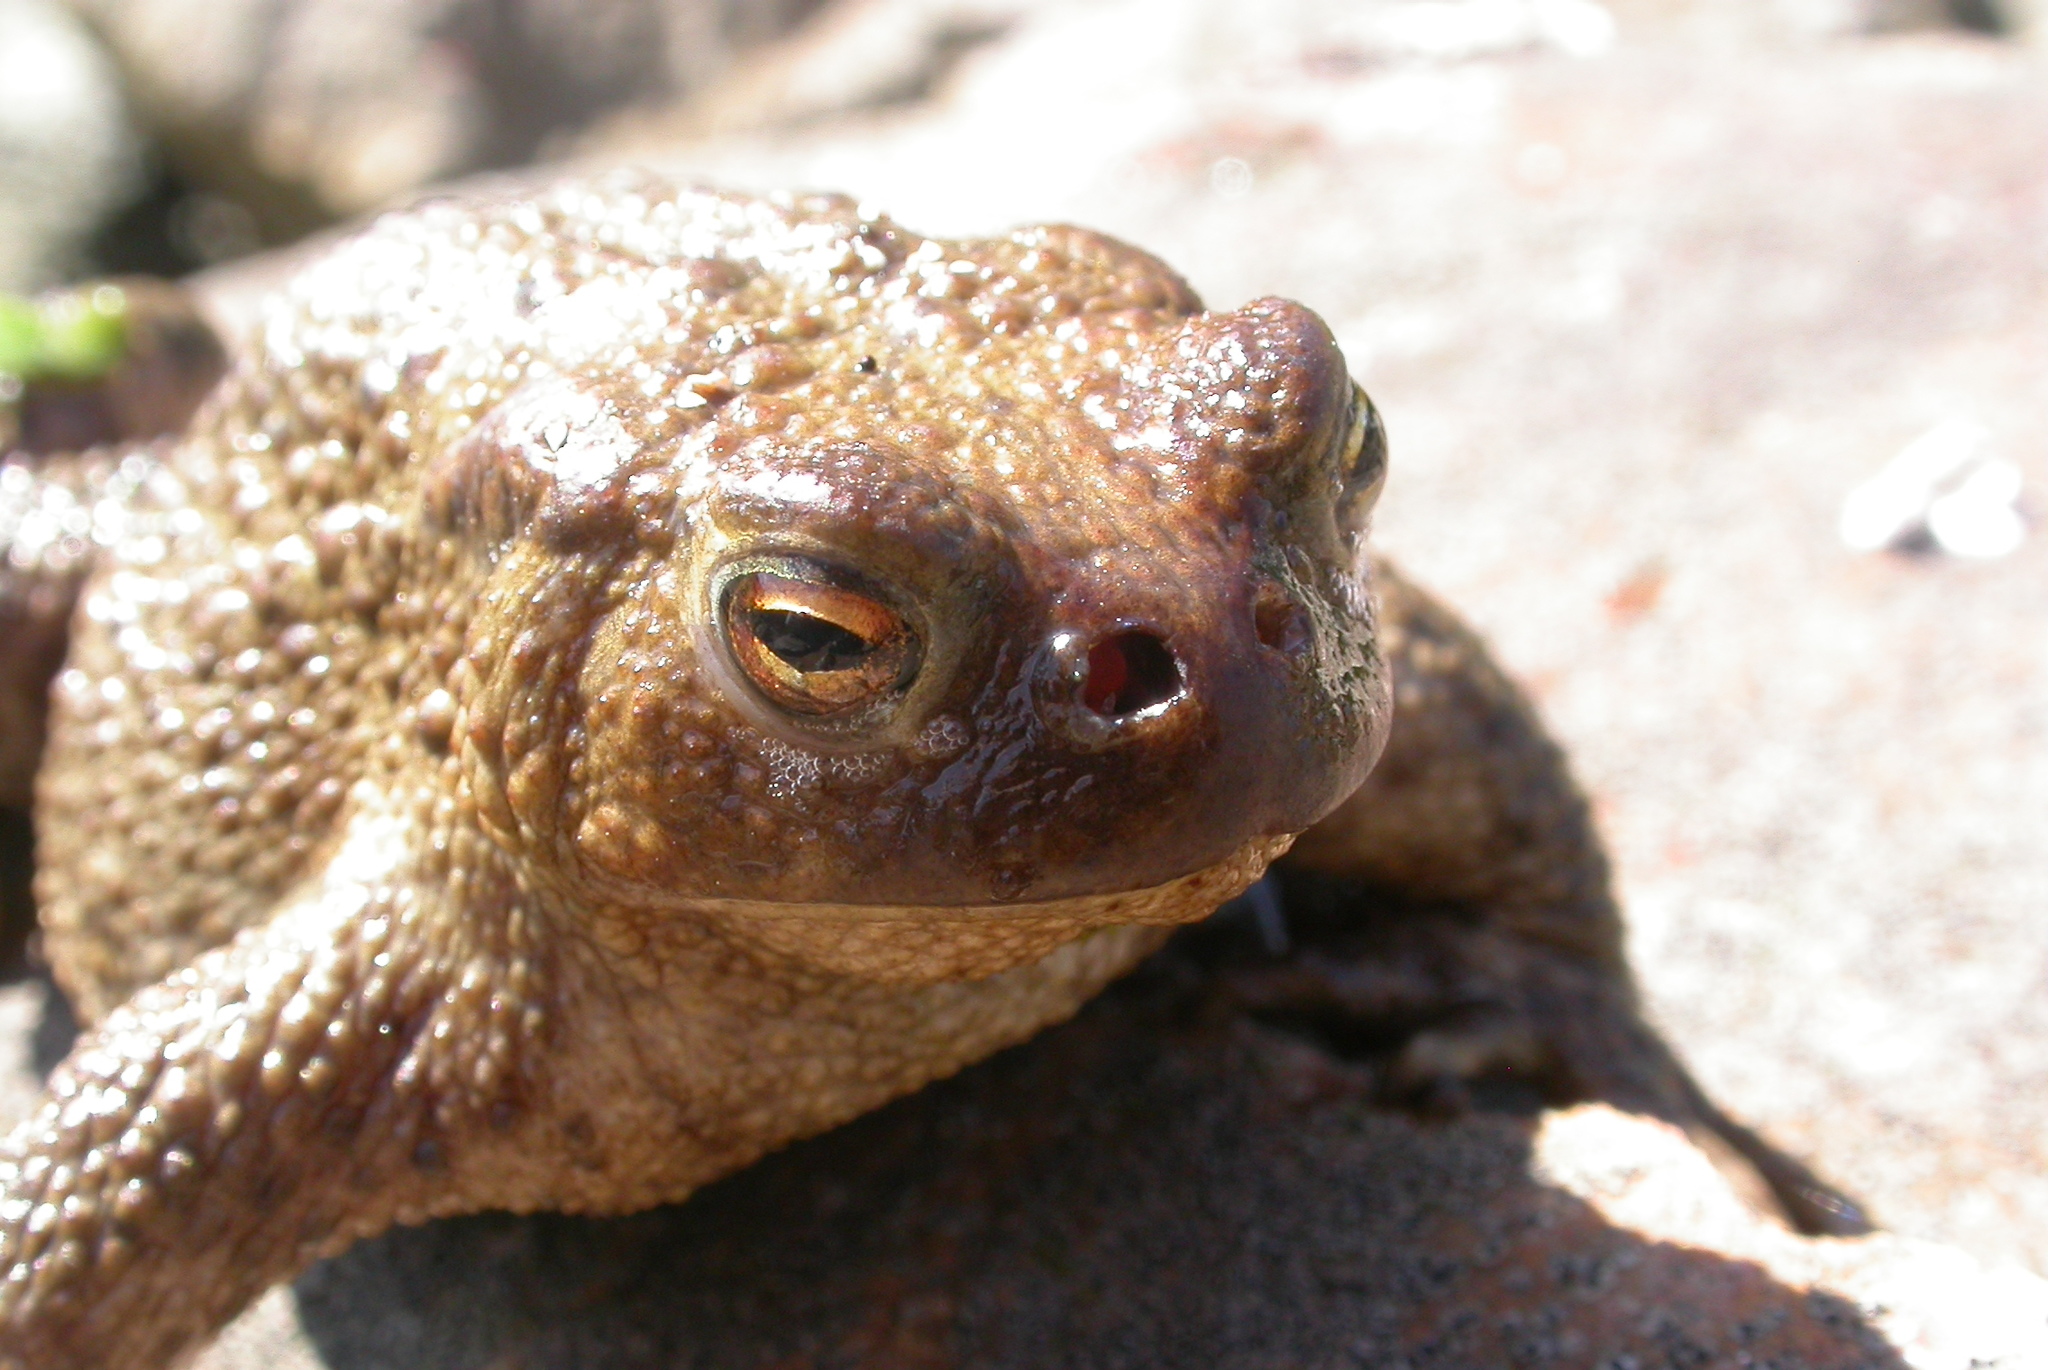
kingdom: Animalia
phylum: Arthropoda
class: Insecta
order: Diptera
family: Calliphoridae
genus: Lucilia
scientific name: Lucilia bufonivora
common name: Anuran parasite
